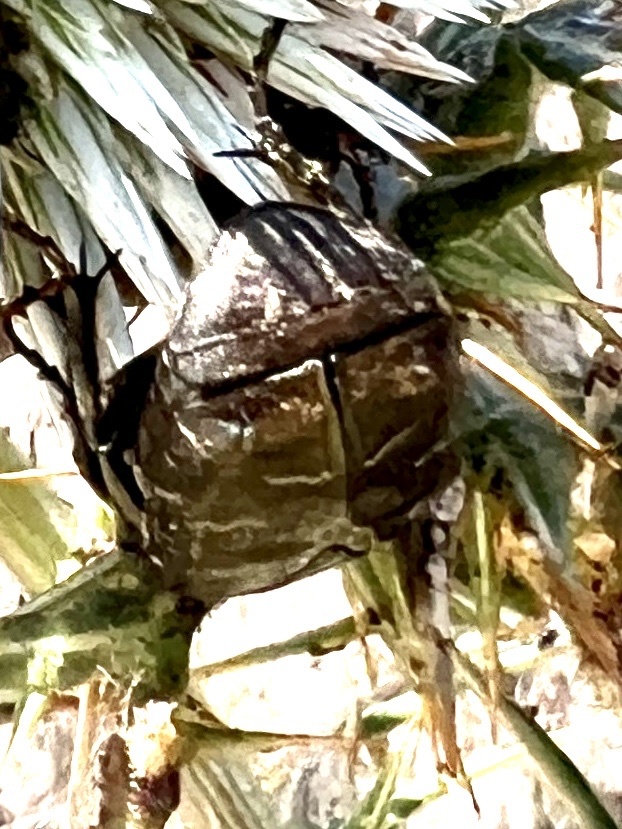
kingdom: Animalia
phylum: Arthropoda
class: Insecta
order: Coleoptera
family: Scarabaeidae
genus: Protaetia
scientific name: Protaetia ikonomovi
